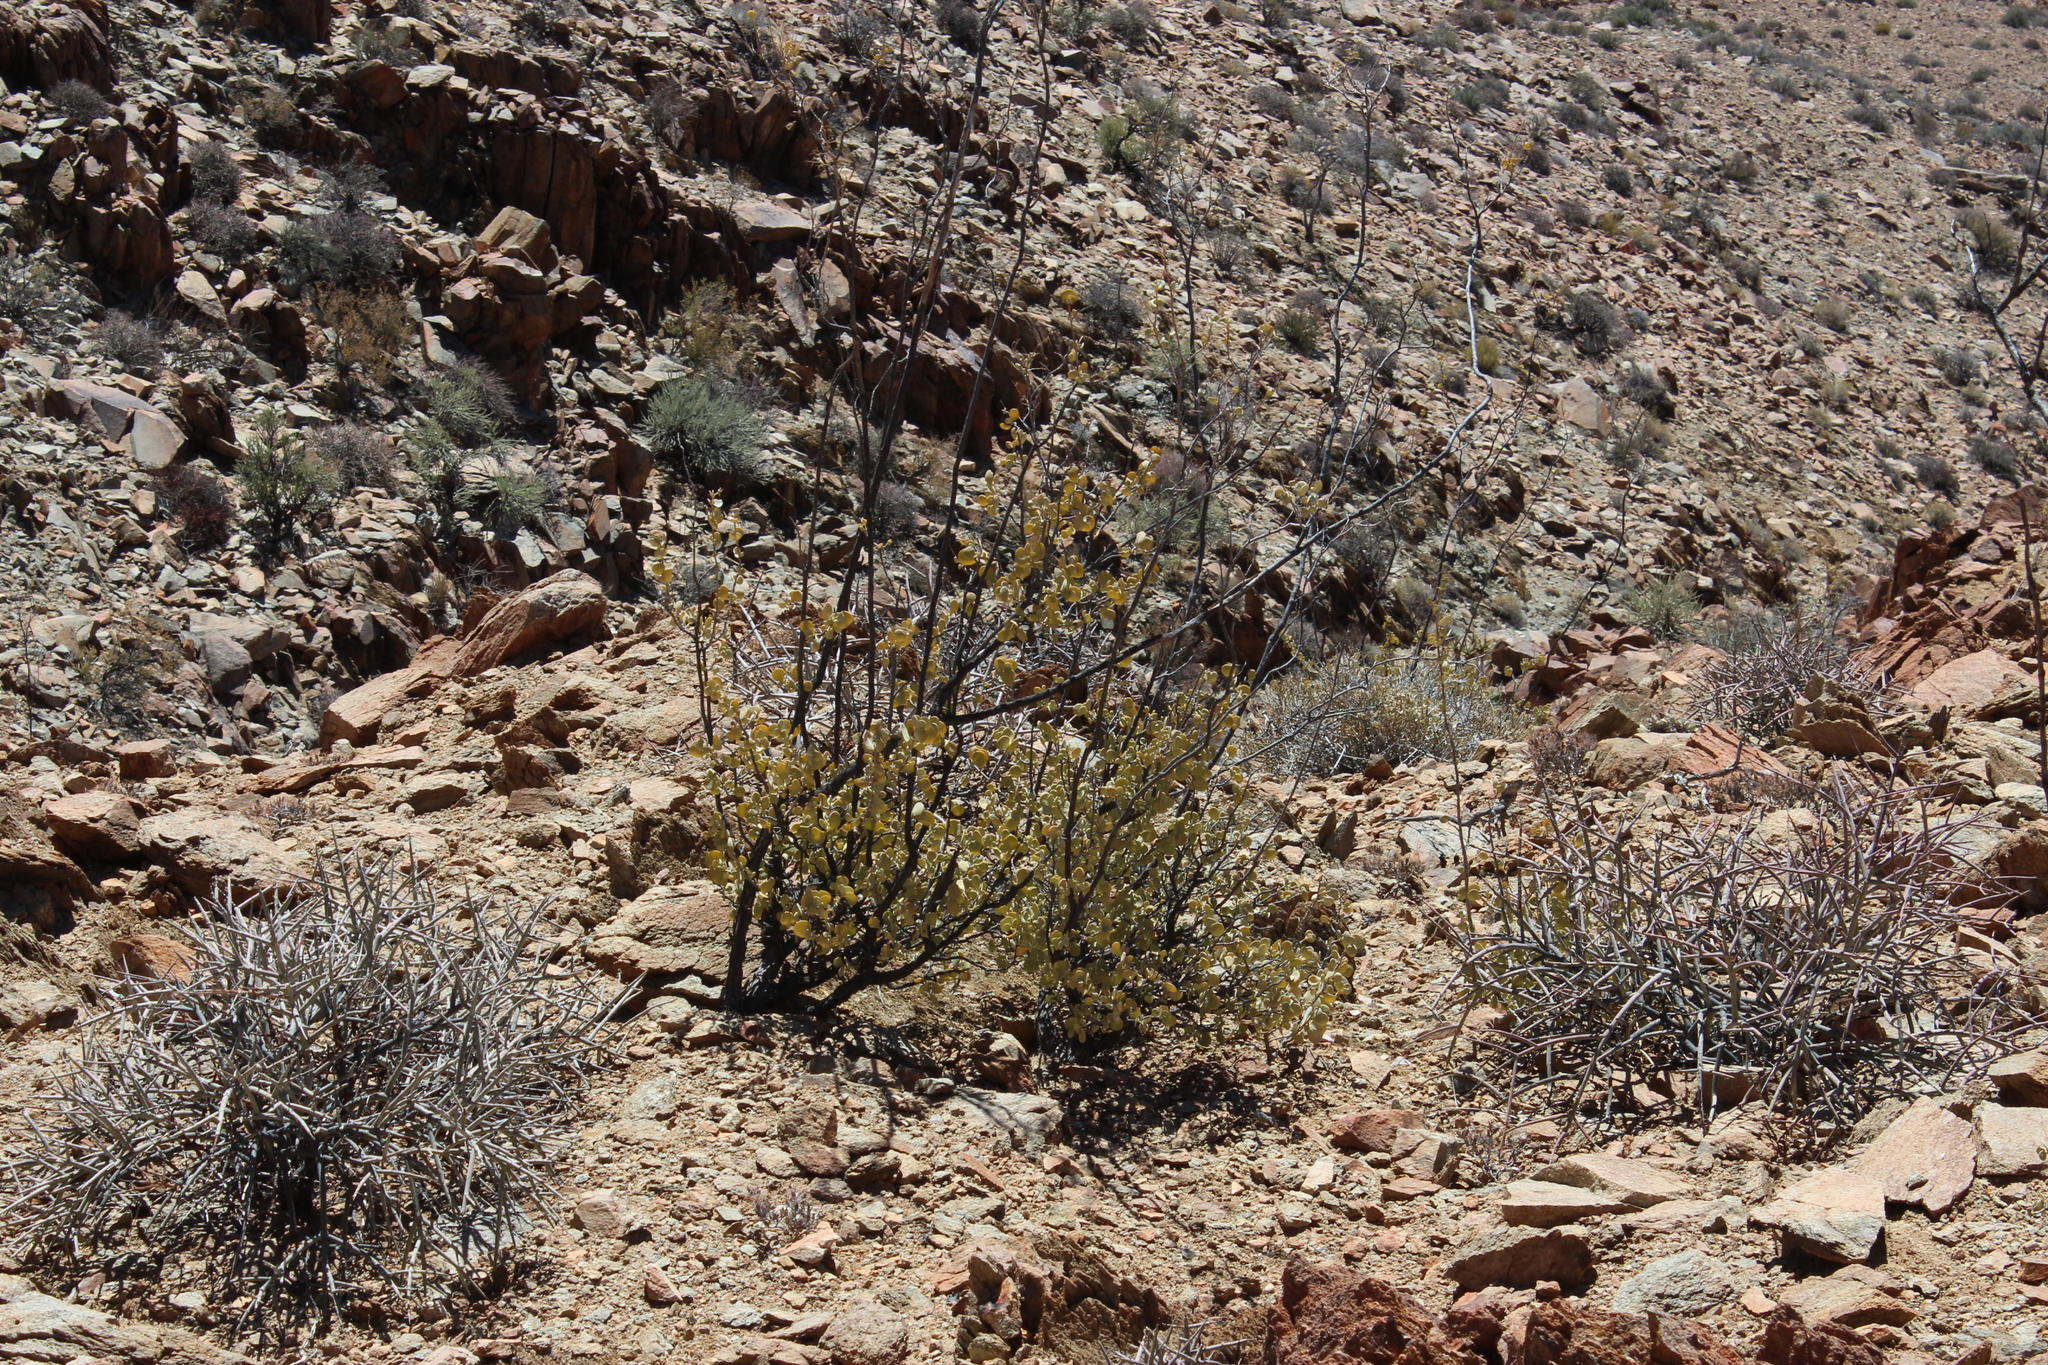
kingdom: Plantae
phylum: Tracheophyta
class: Magnoliopsida
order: Zygophyllales
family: Zygophyllaceae
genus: Tetraena
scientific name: Tetraena prismatocarpa
